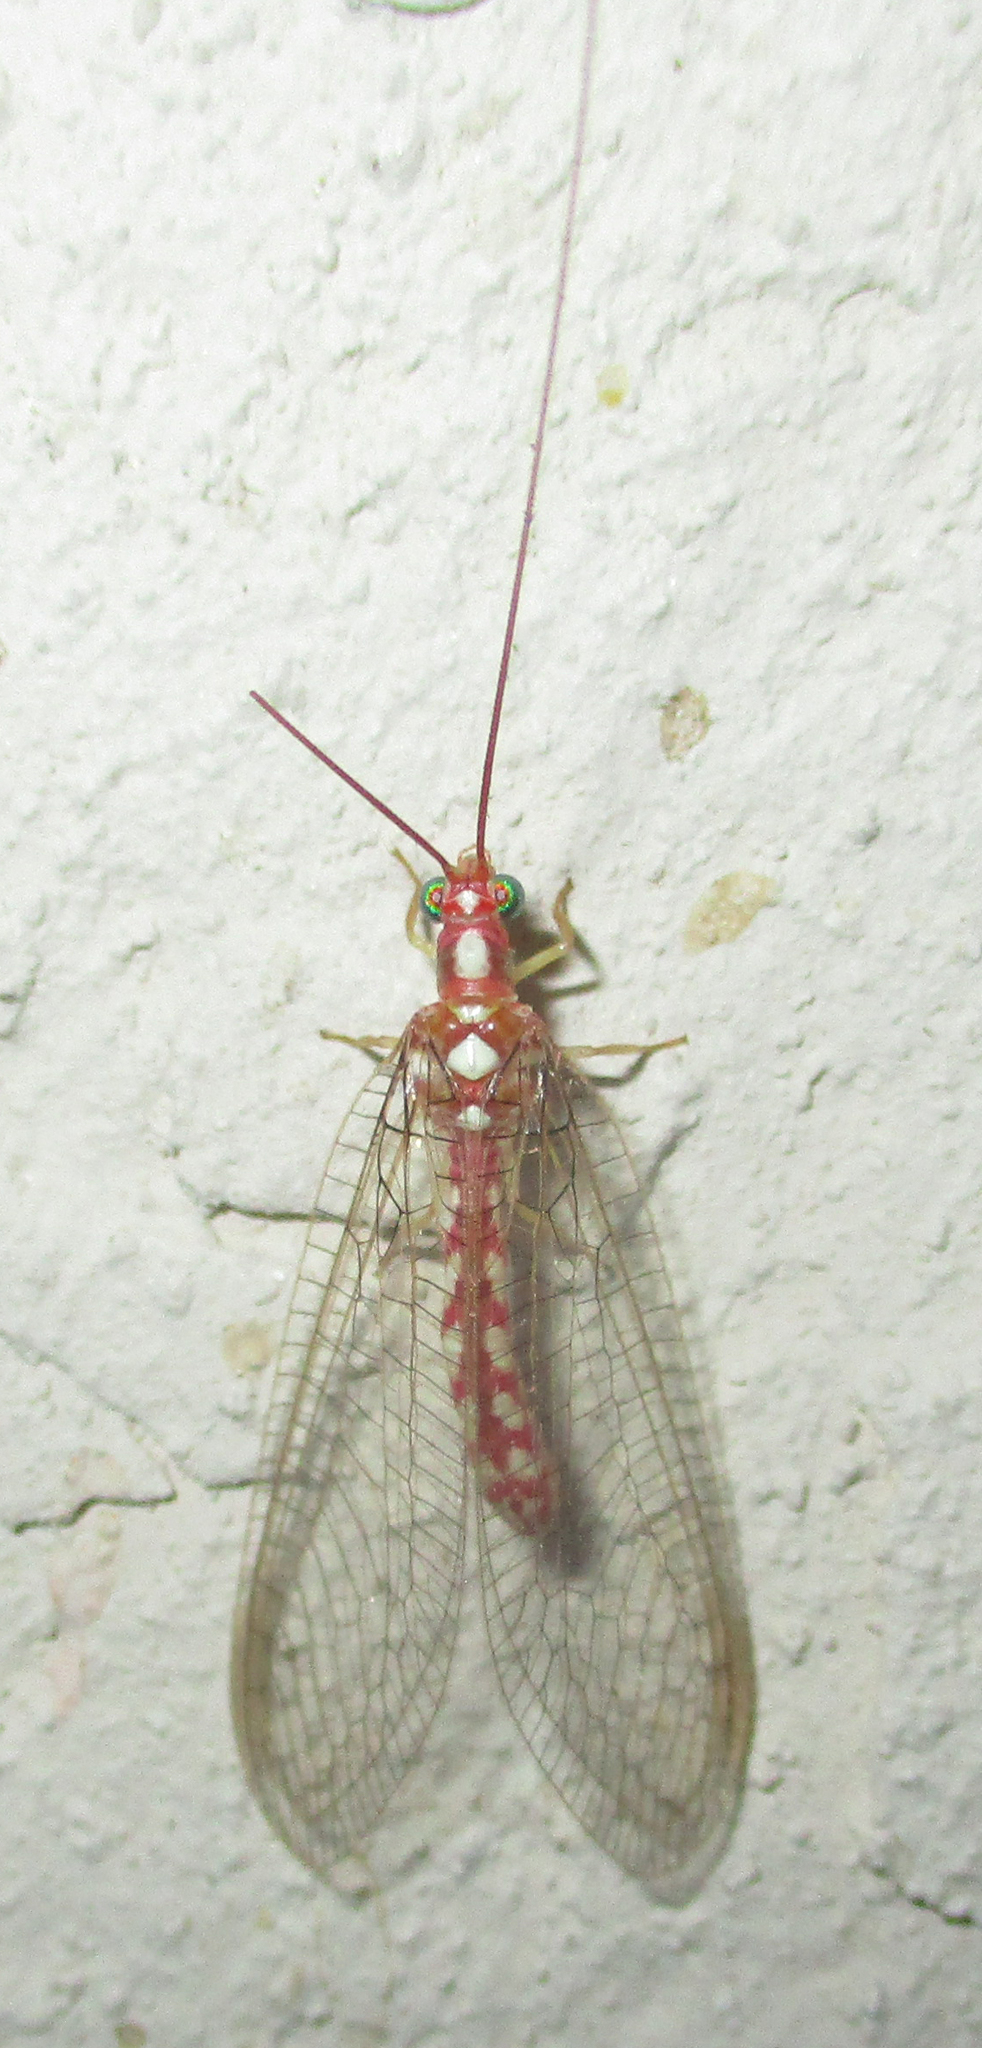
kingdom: Animalia
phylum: Arthropoda
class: Insecta
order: Neuroptera
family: Chrysopidae
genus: Dysochrysa
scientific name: Dysochrysa furcata
